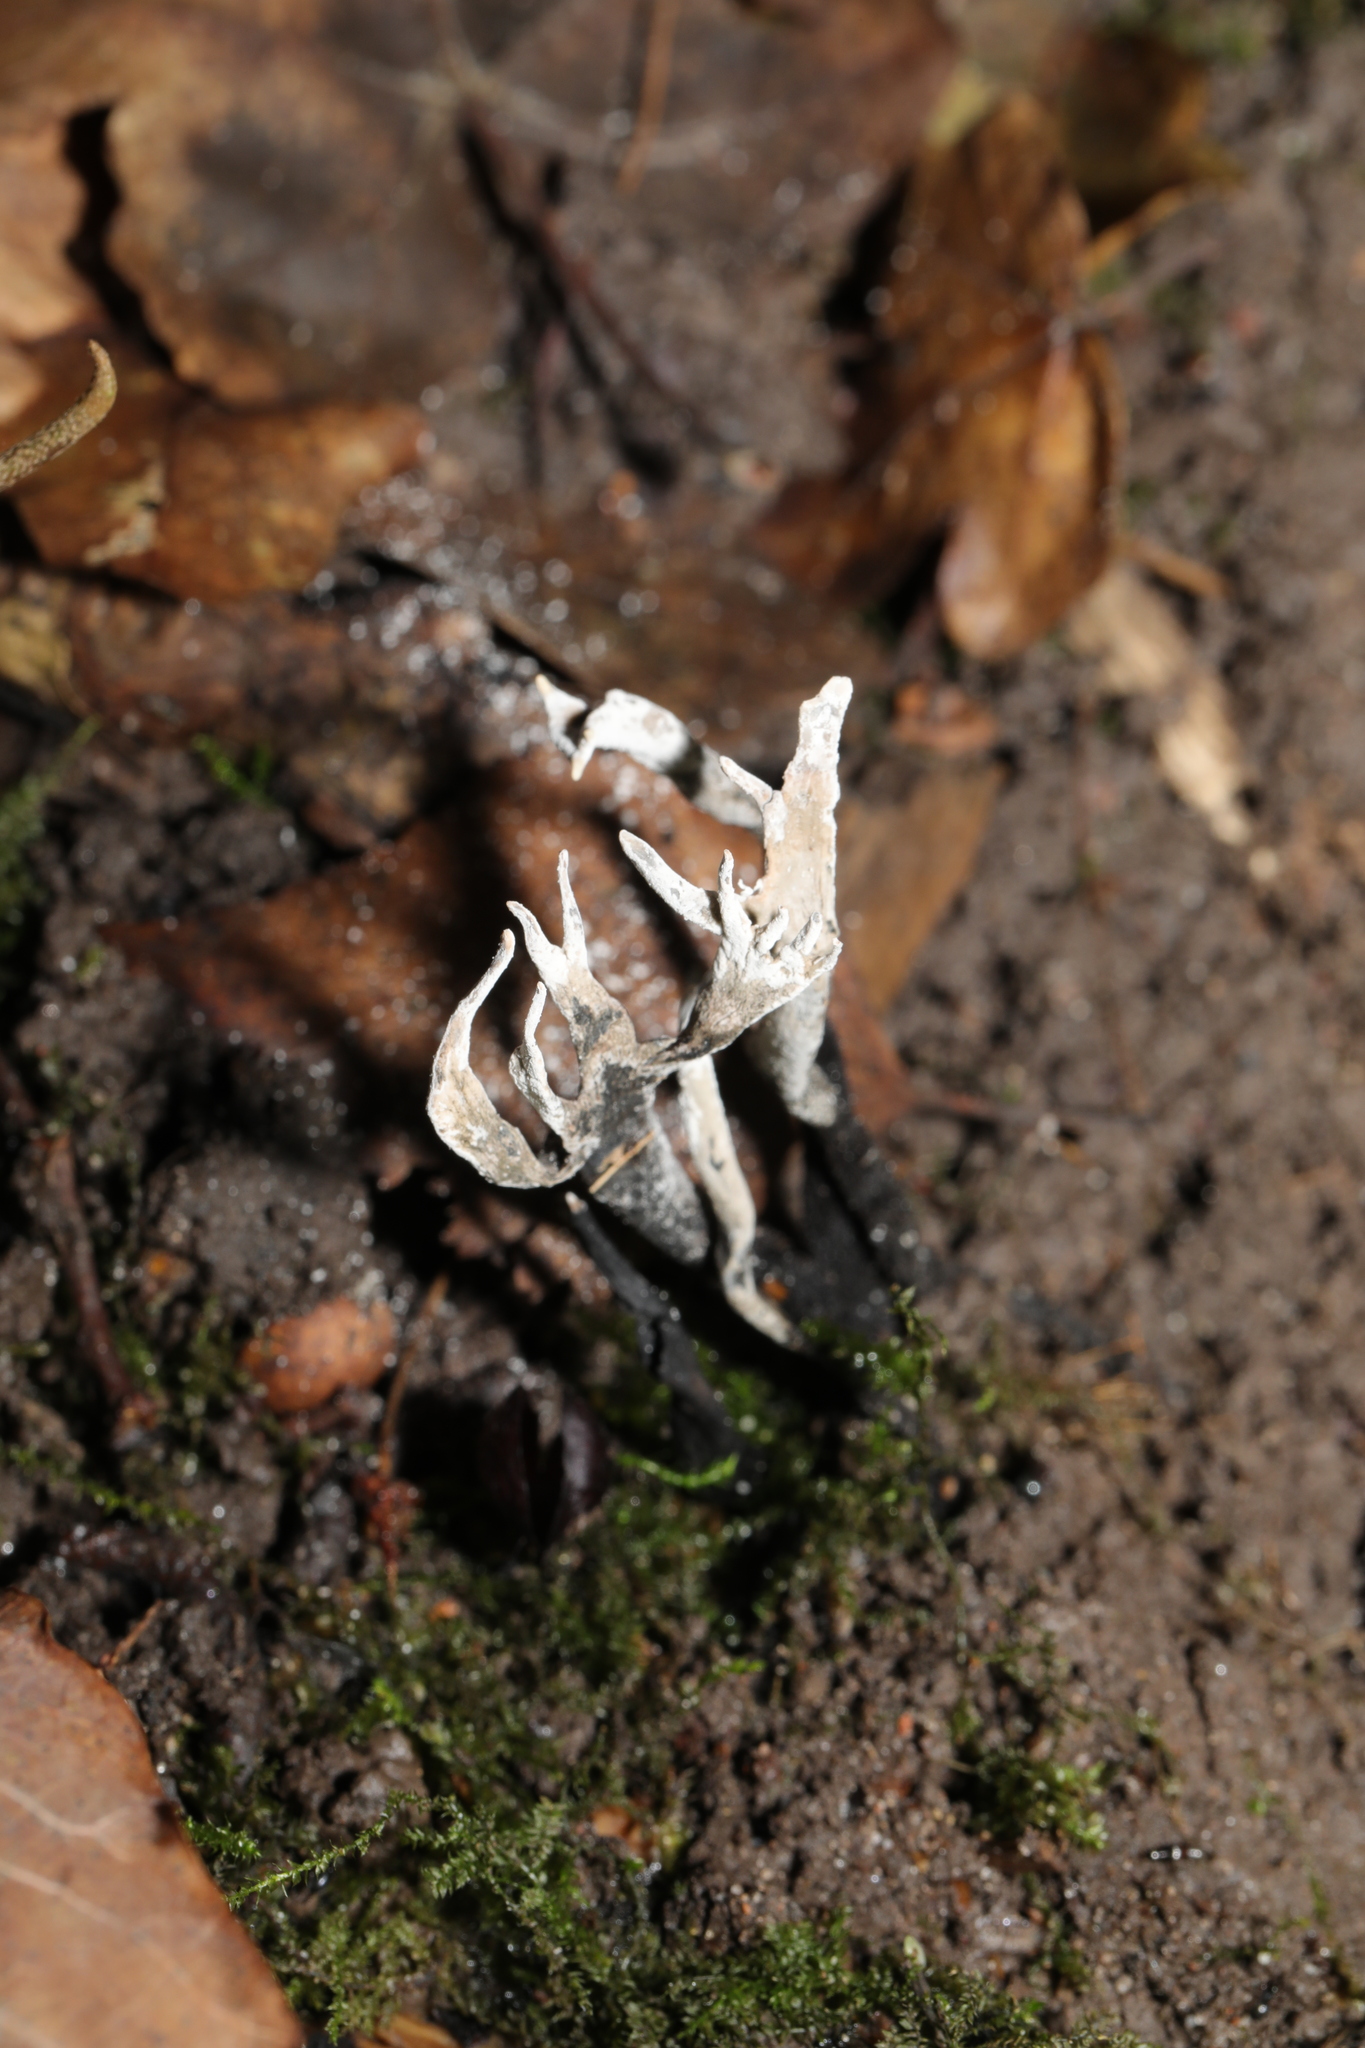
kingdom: Fungi
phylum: Ascomycota
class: Sordariomycetes
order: Xylariales
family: Xylariaceae
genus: Xylaria
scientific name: Xylaria hypoxylon
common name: Candle-snuff fungus
